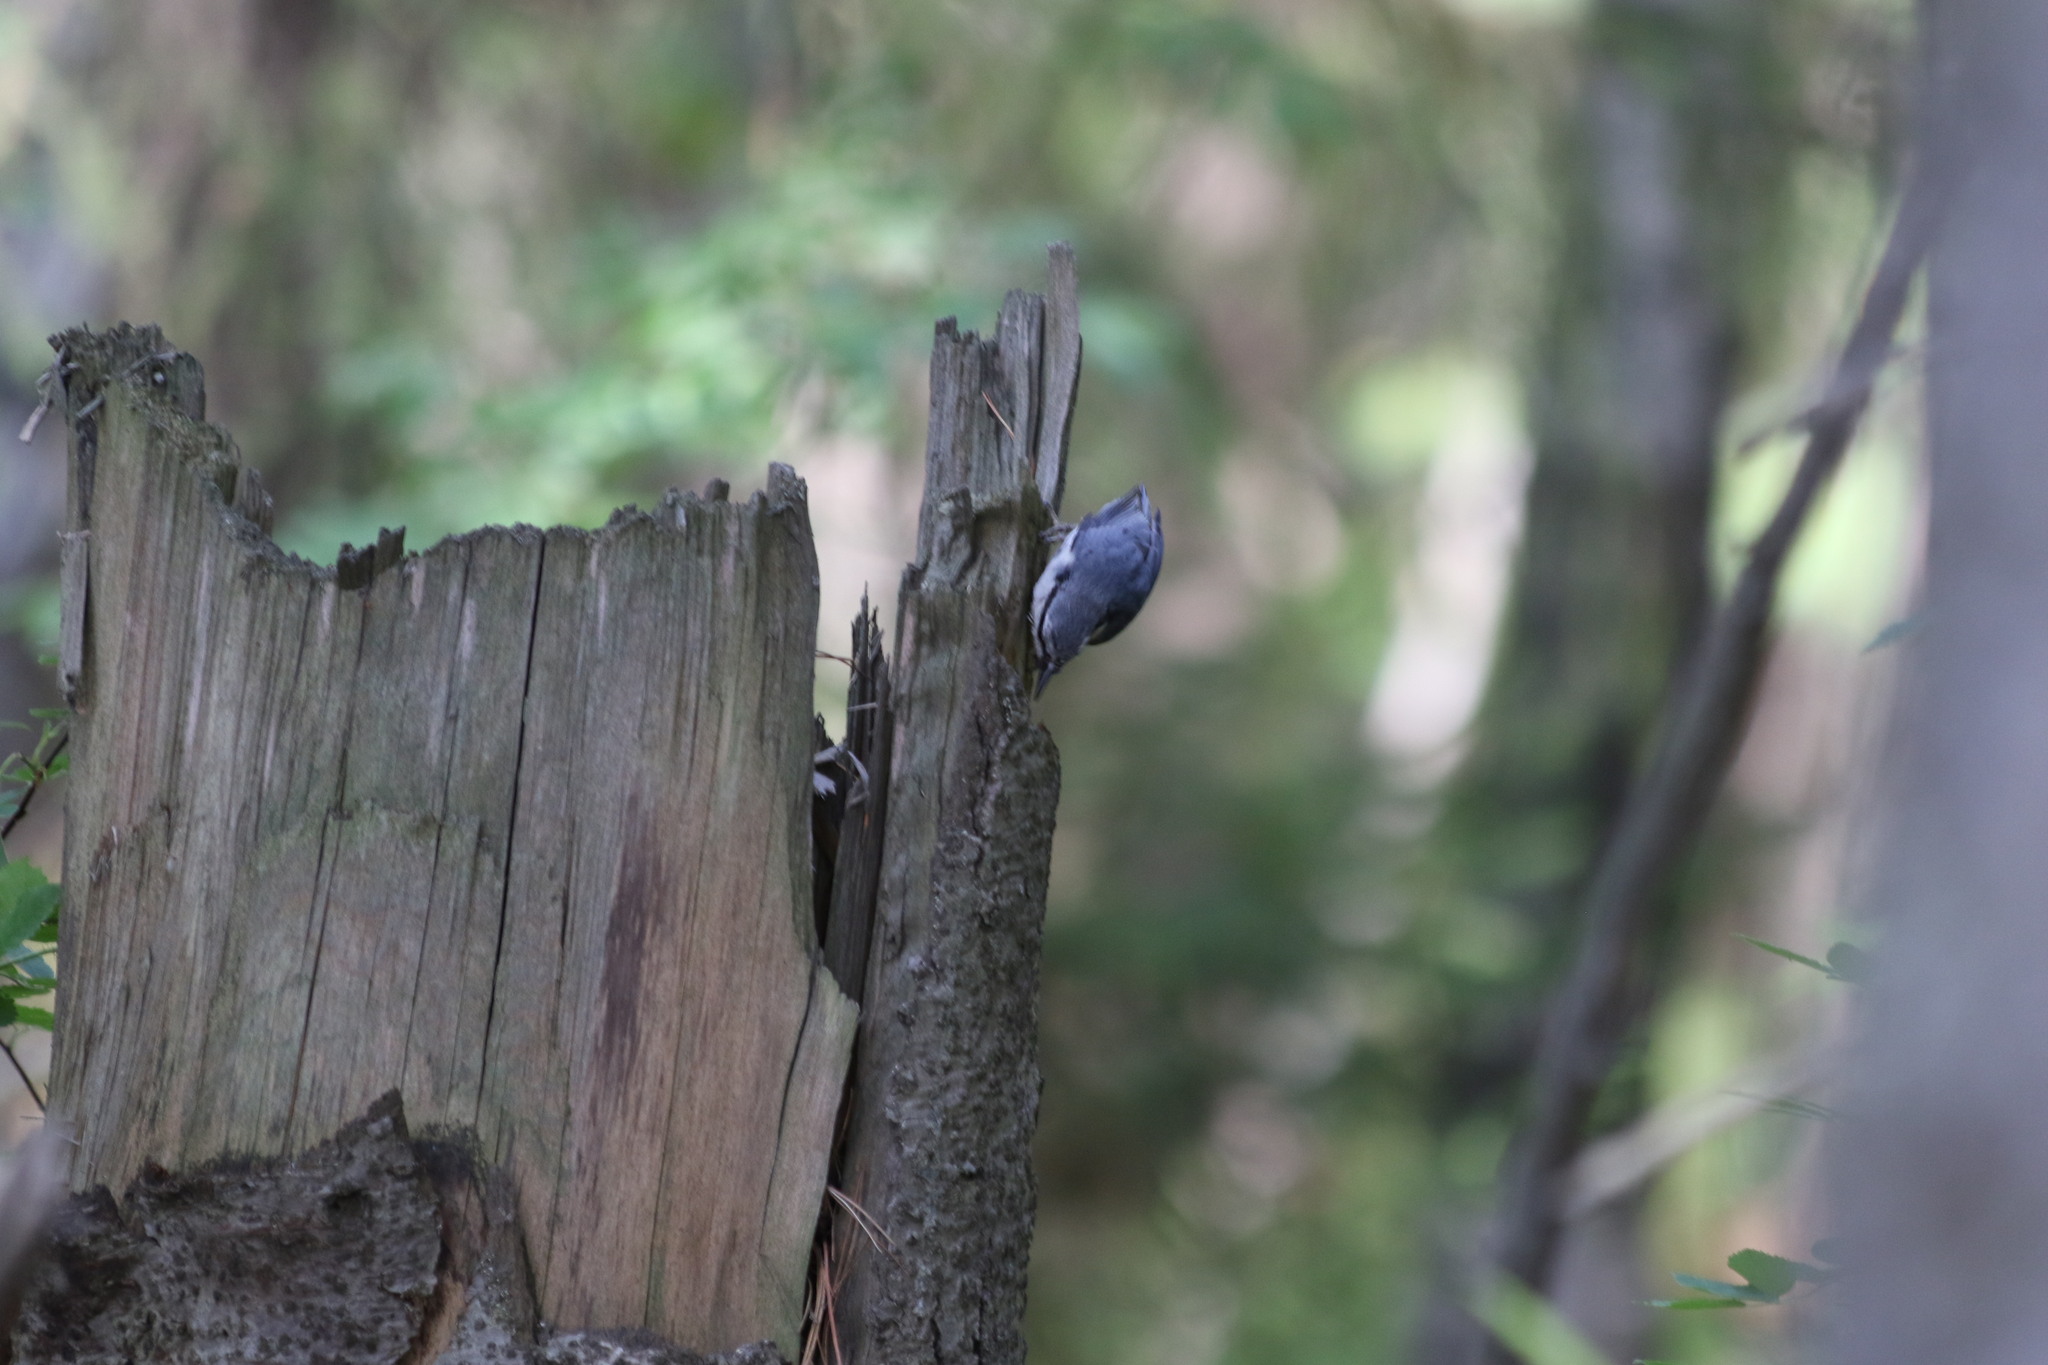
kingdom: Animalia
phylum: Chordata
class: Aves
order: Passeriformes
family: Sittidae
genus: Sitta
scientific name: Sitta europaea
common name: Eurasian nuthatch
